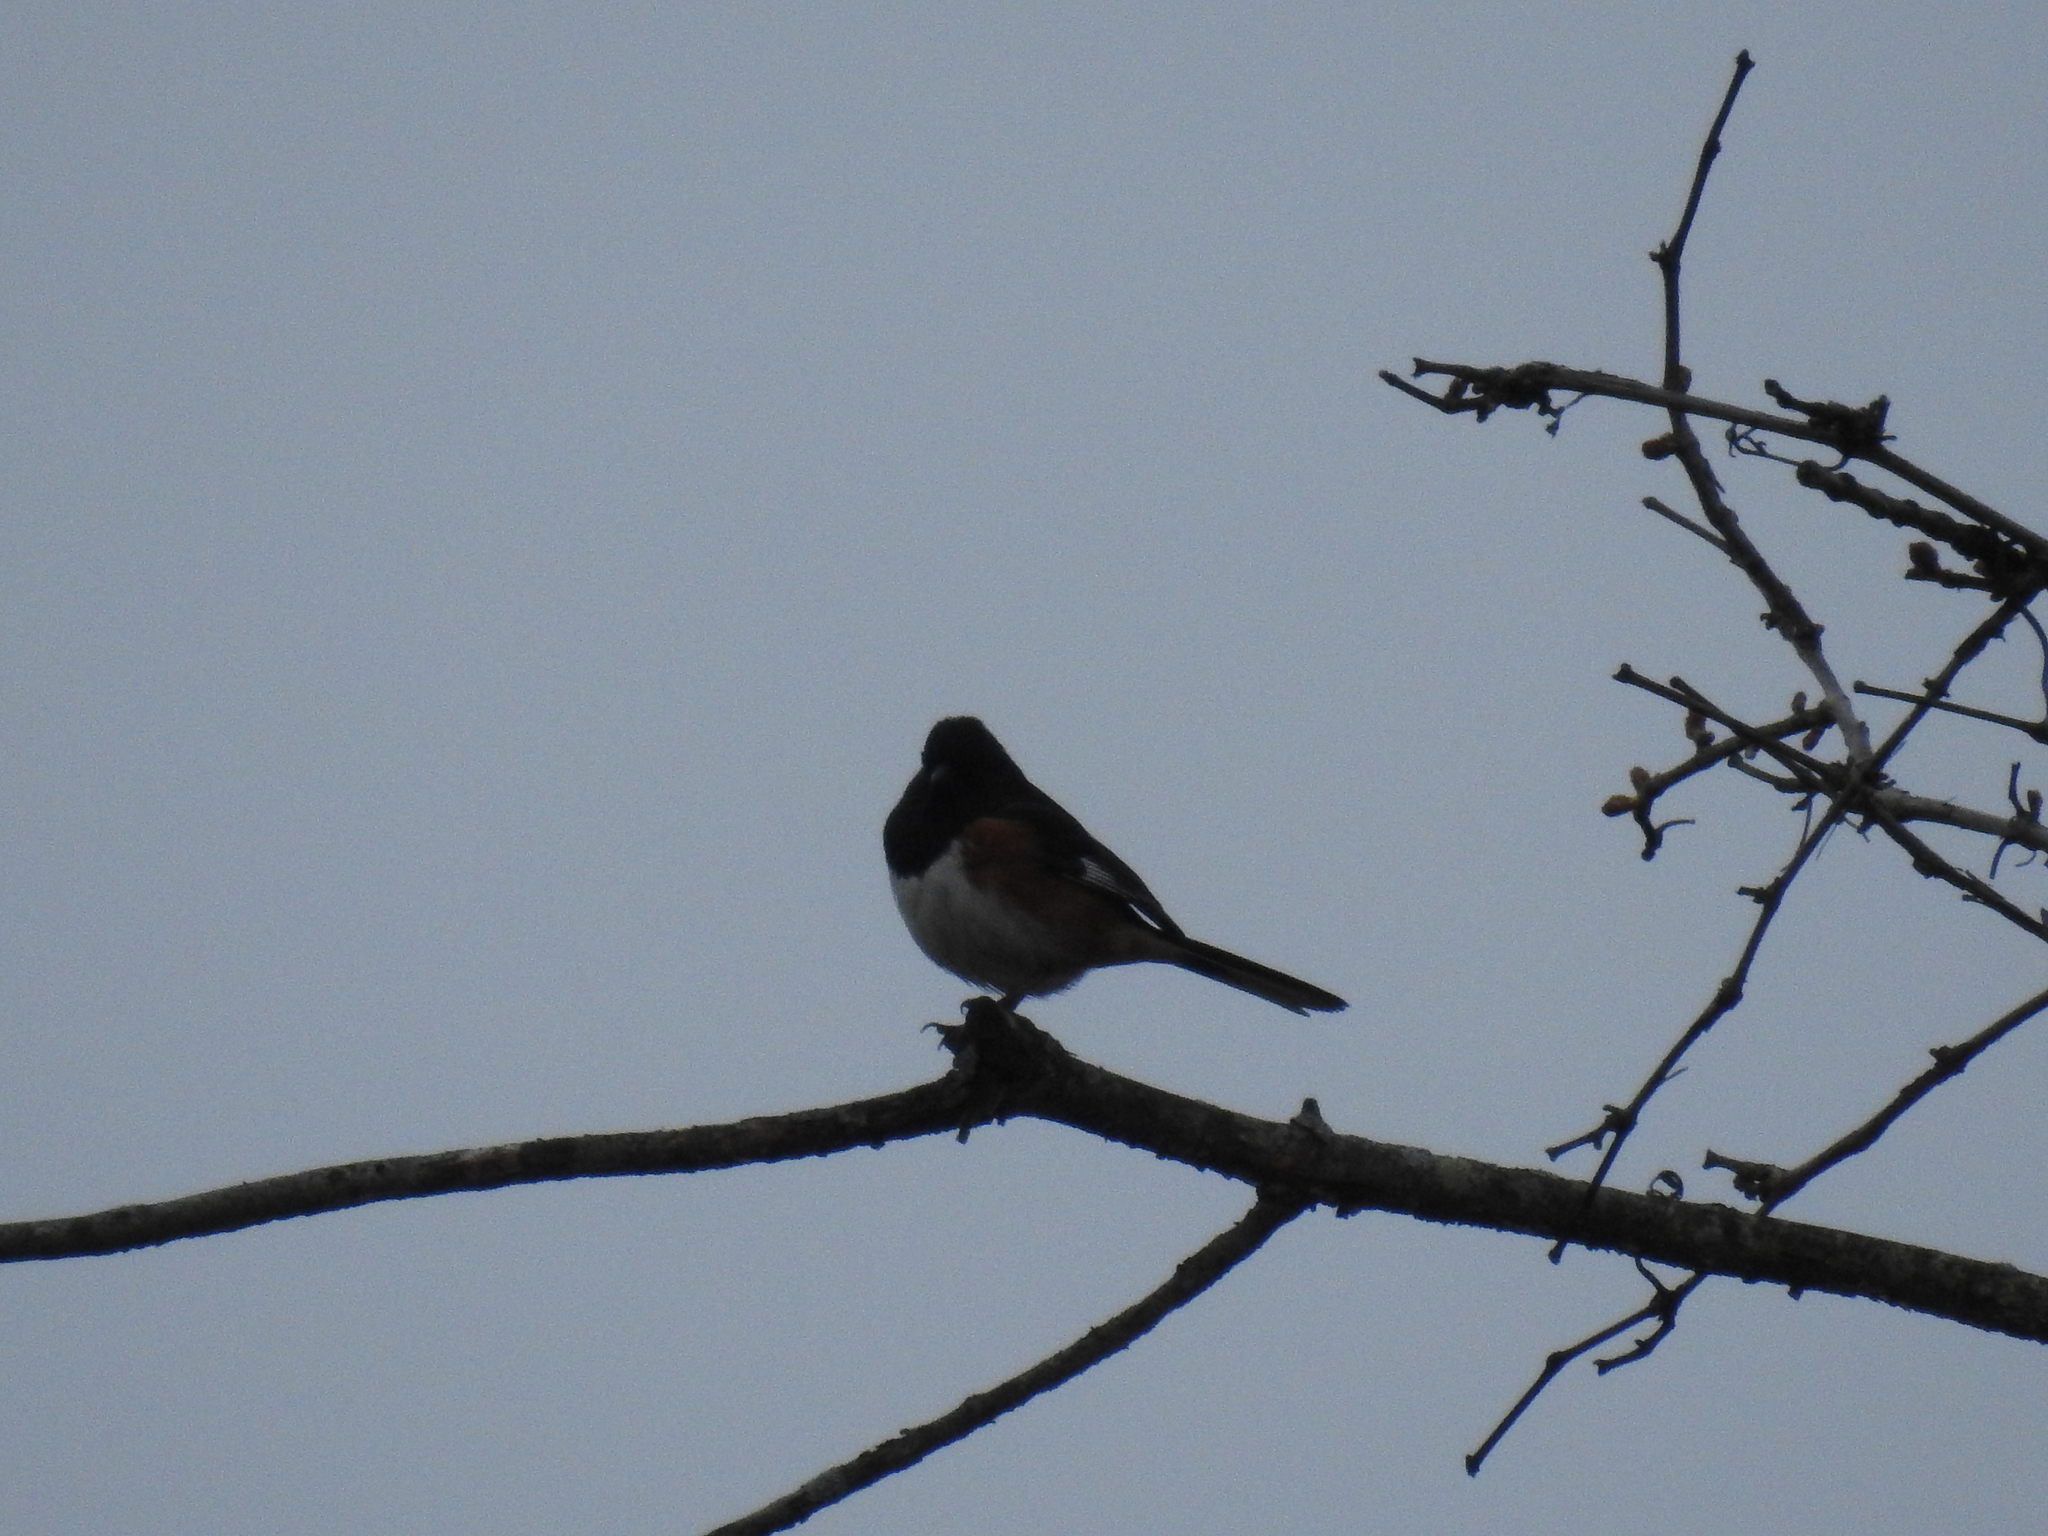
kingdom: Animalia
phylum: Chordata
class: Aves
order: Passeriformes
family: Passerellidae
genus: Pipilo
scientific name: Pipilo erythrophthalmus
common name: Eastern towhee
